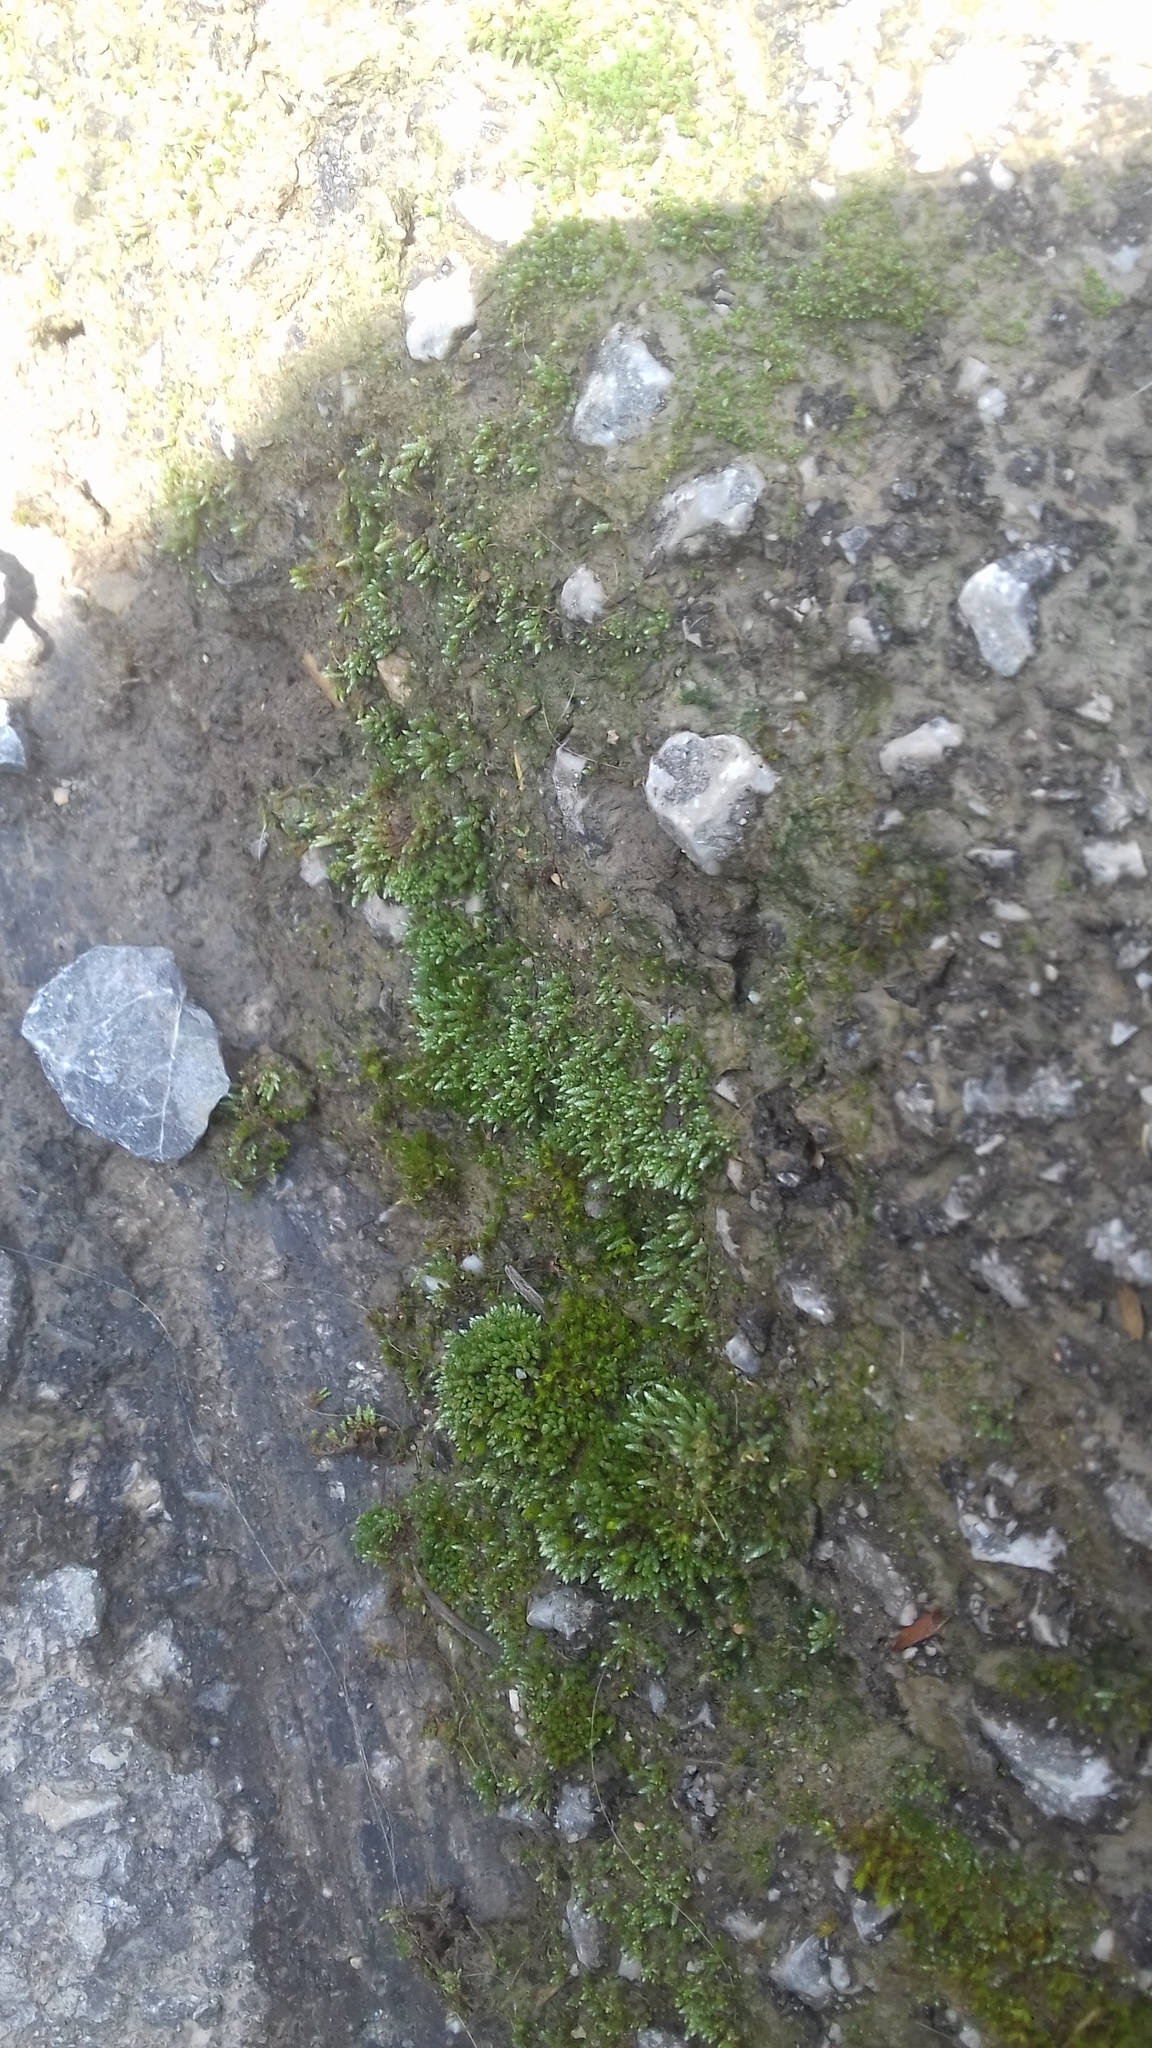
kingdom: Plantae
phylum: Bryophyta
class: Bryopsida
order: Bryales
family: Bryaceae
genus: Bryum
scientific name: Bryum argenteum
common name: Silver-moss
